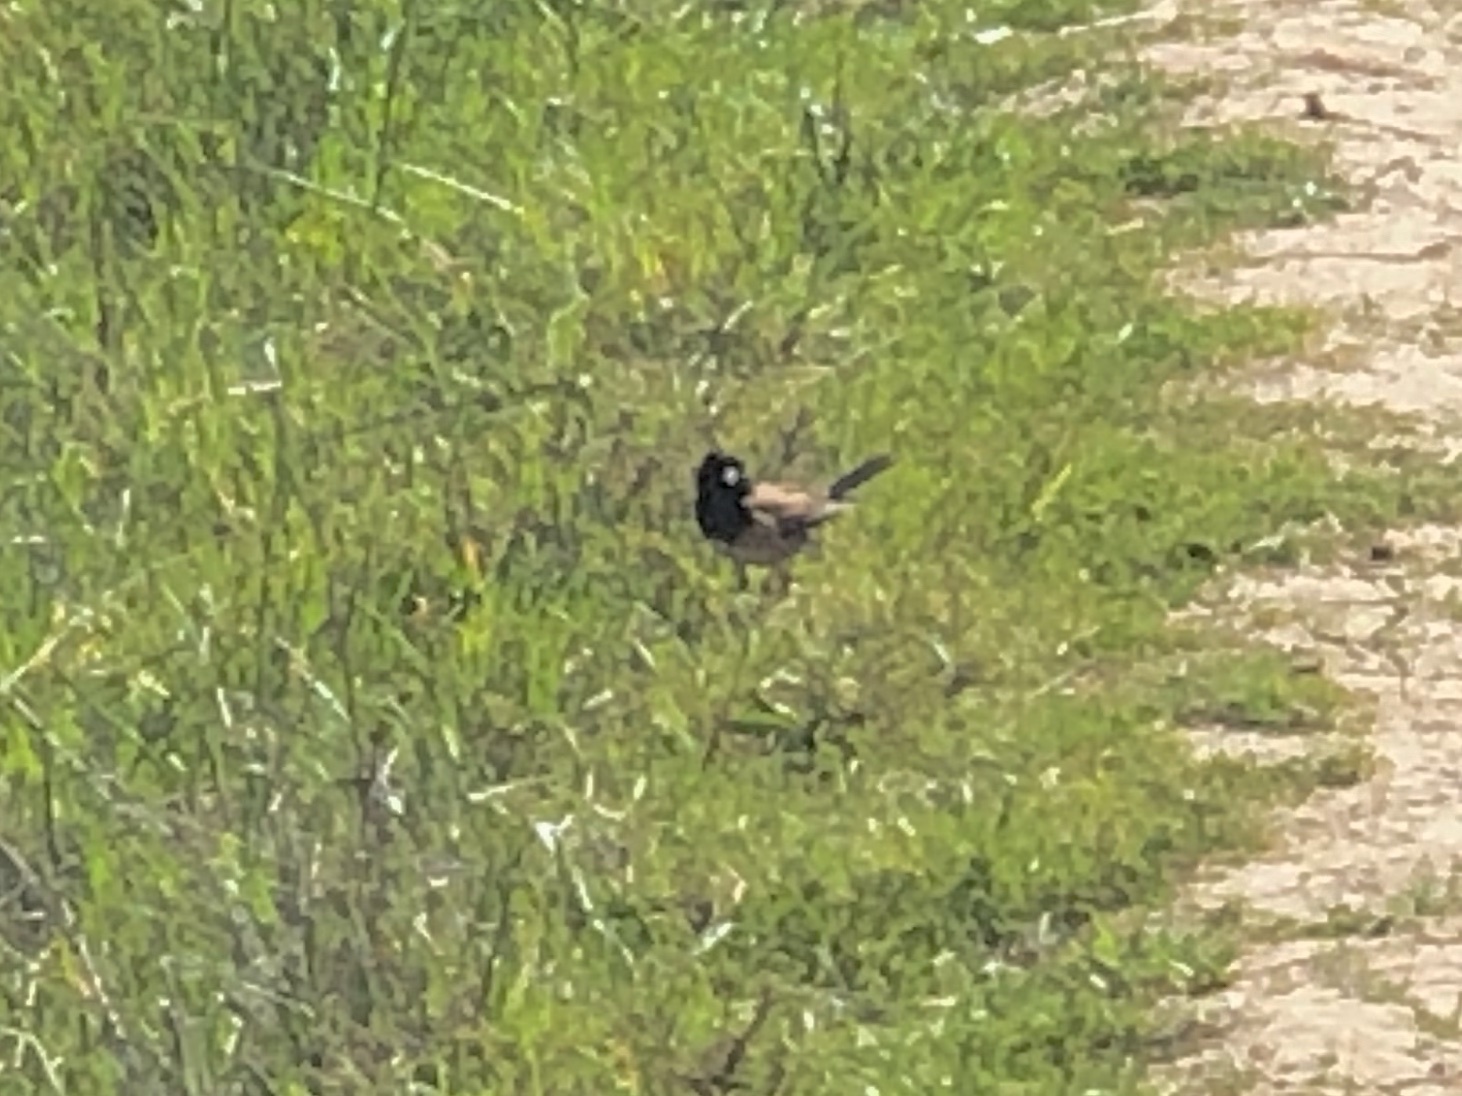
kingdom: Animalia
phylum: Chordata
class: Aves
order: Passeriformes
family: Passerellidae
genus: Junco
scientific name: Junco hyemalis
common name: Dark-eyed junco
